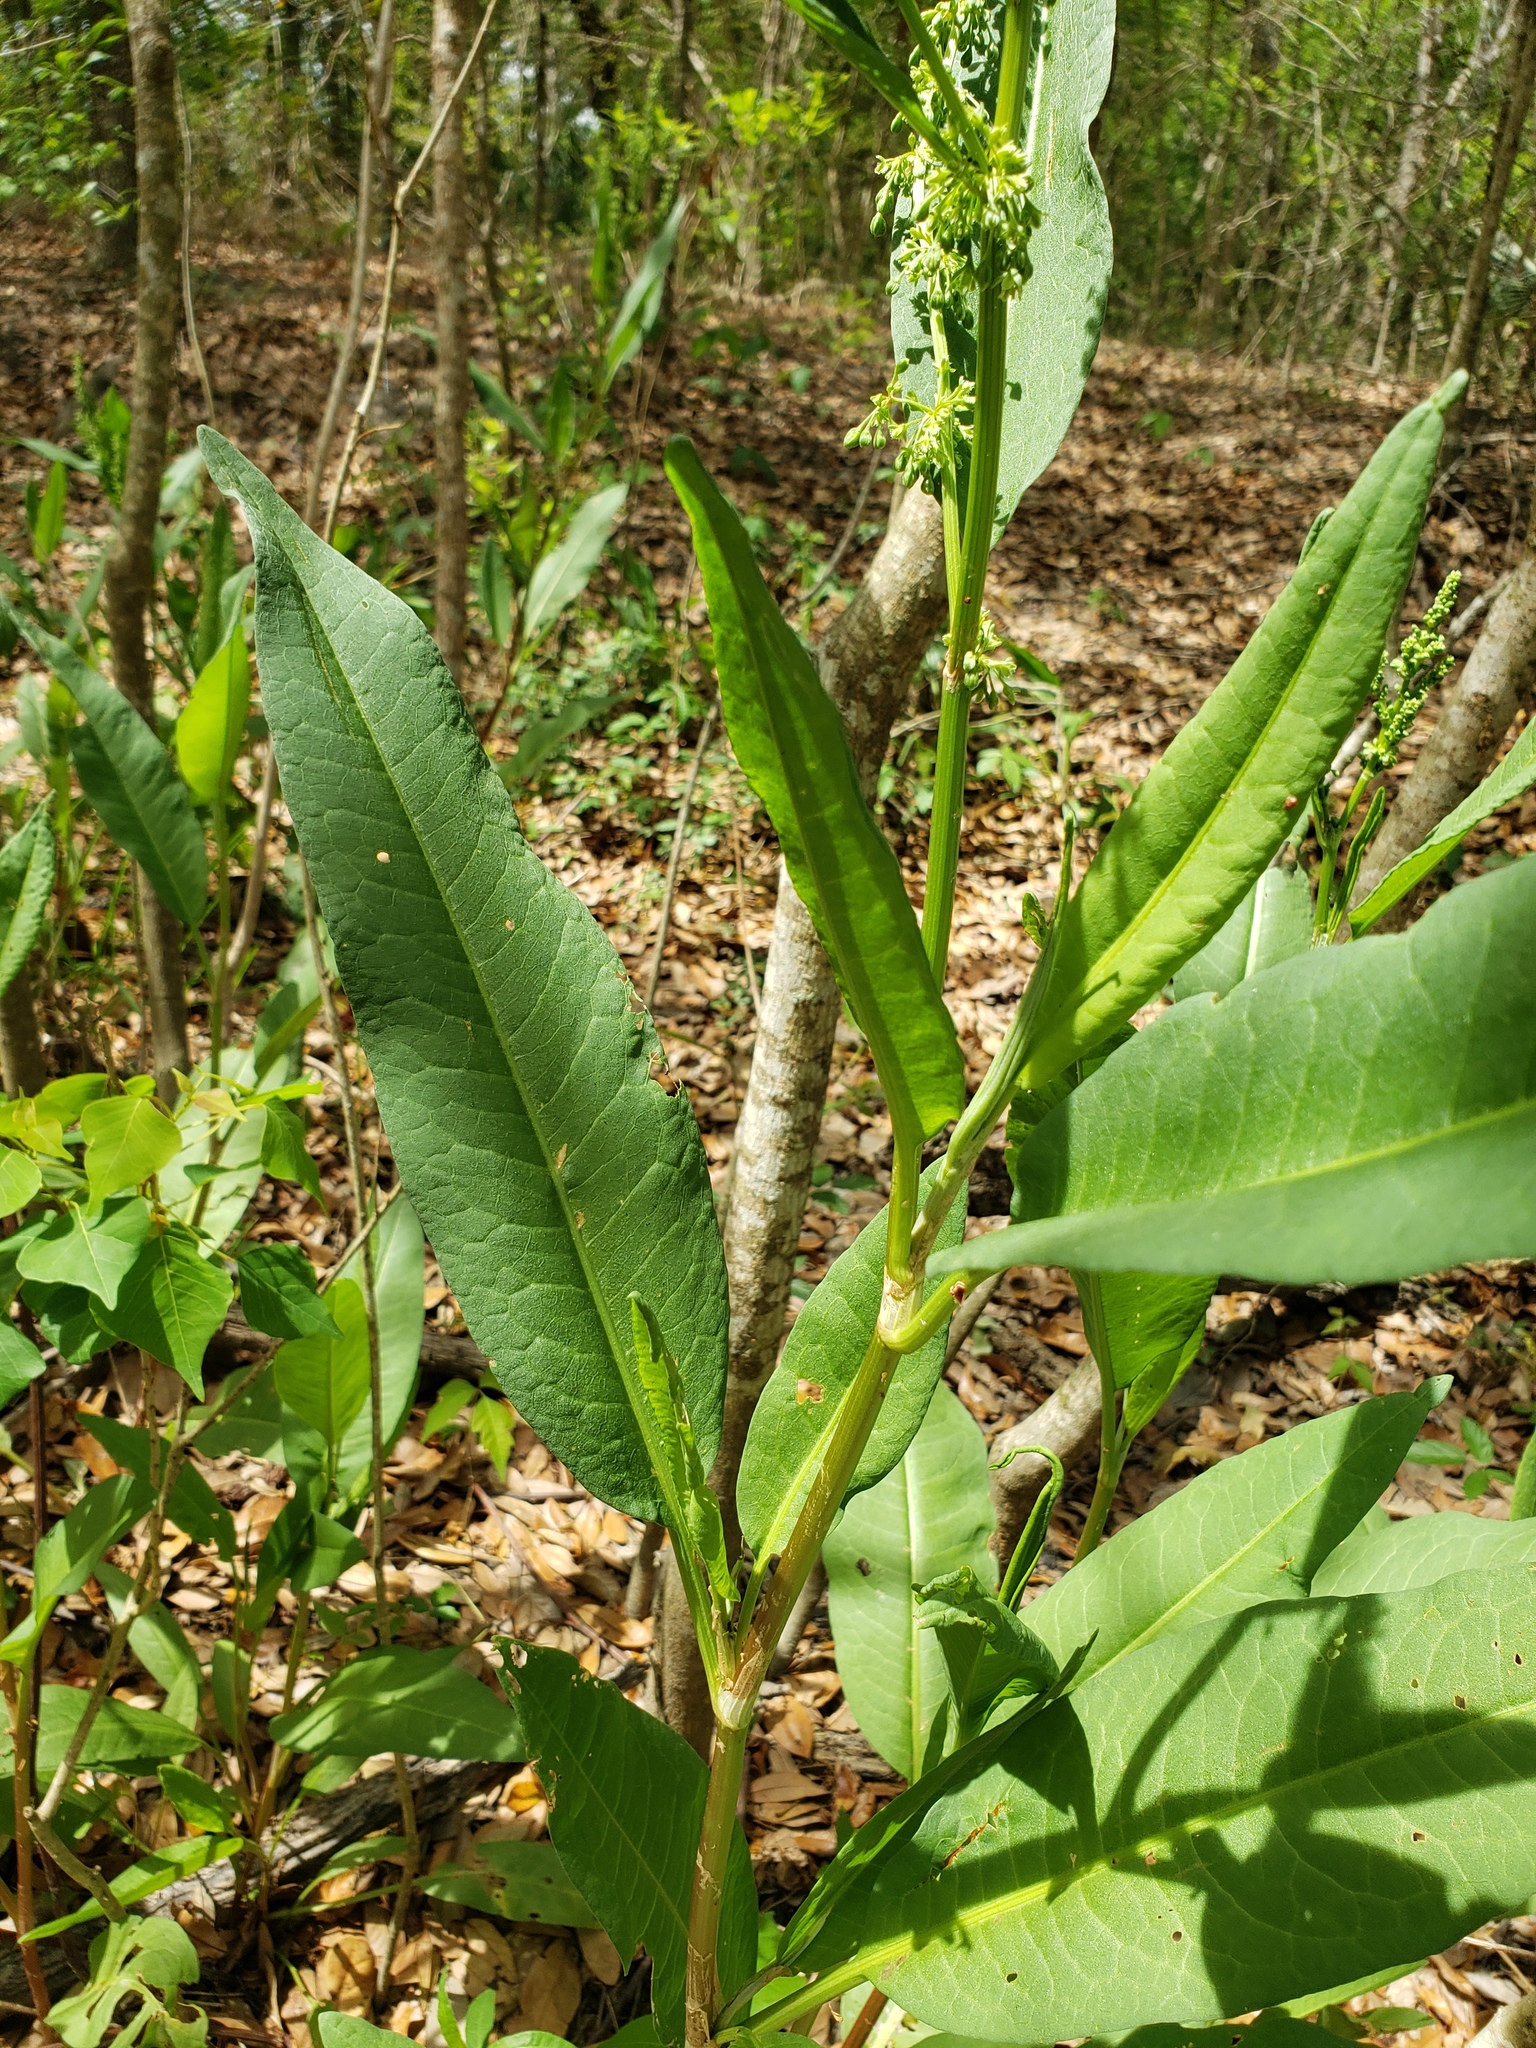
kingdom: Plantae
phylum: Tracheophyta
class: Magnoliopsida
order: Caryophyllales
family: Polygonaceae
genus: Rumex
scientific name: Rumex verticillatus
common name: Swamp dock
